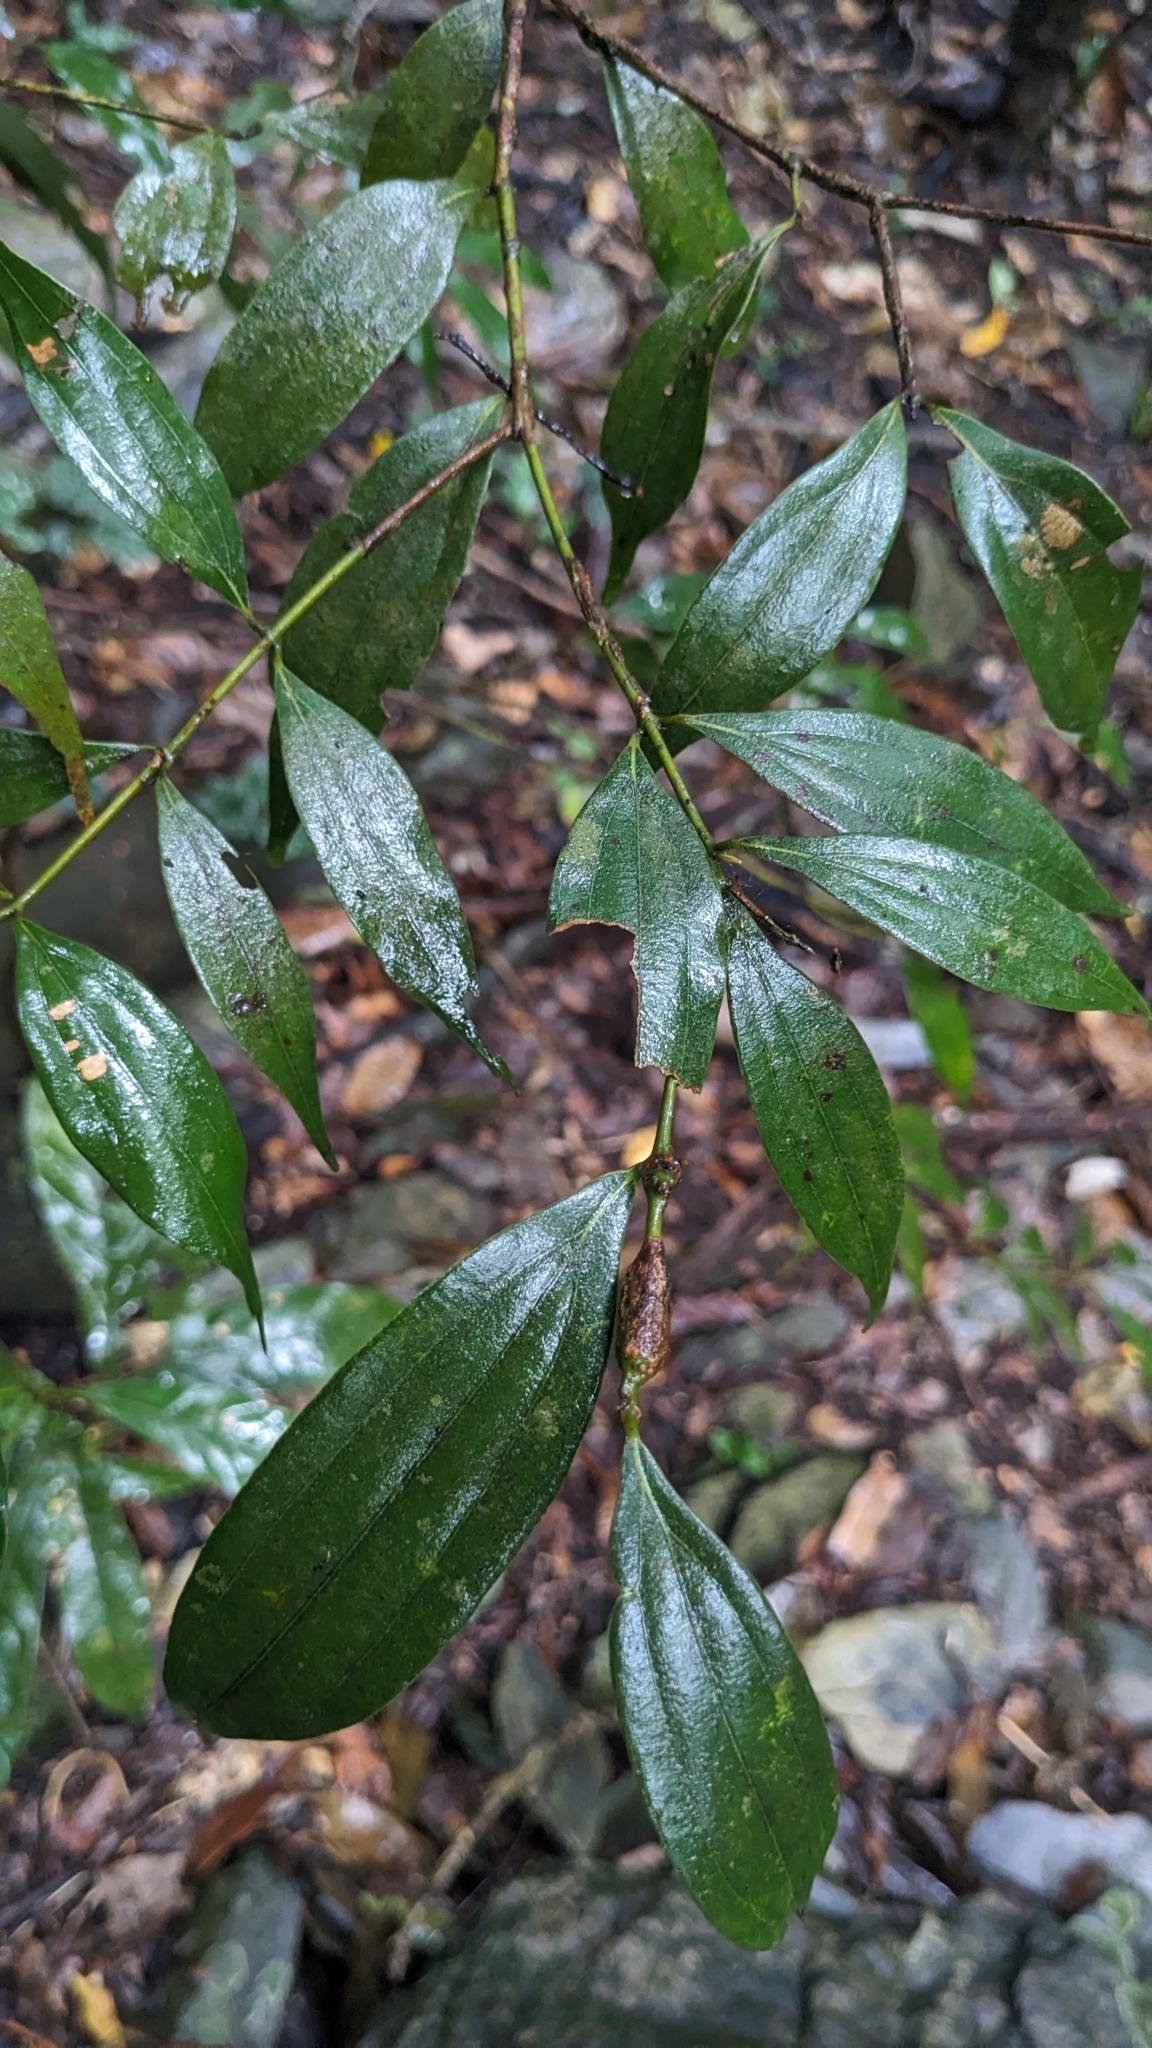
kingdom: Plantae
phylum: Tracheophyta
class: Magnoliopsida
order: Laurales
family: Lauraceae
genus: Cinnamomum
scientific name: Cinnamomum subavenium
